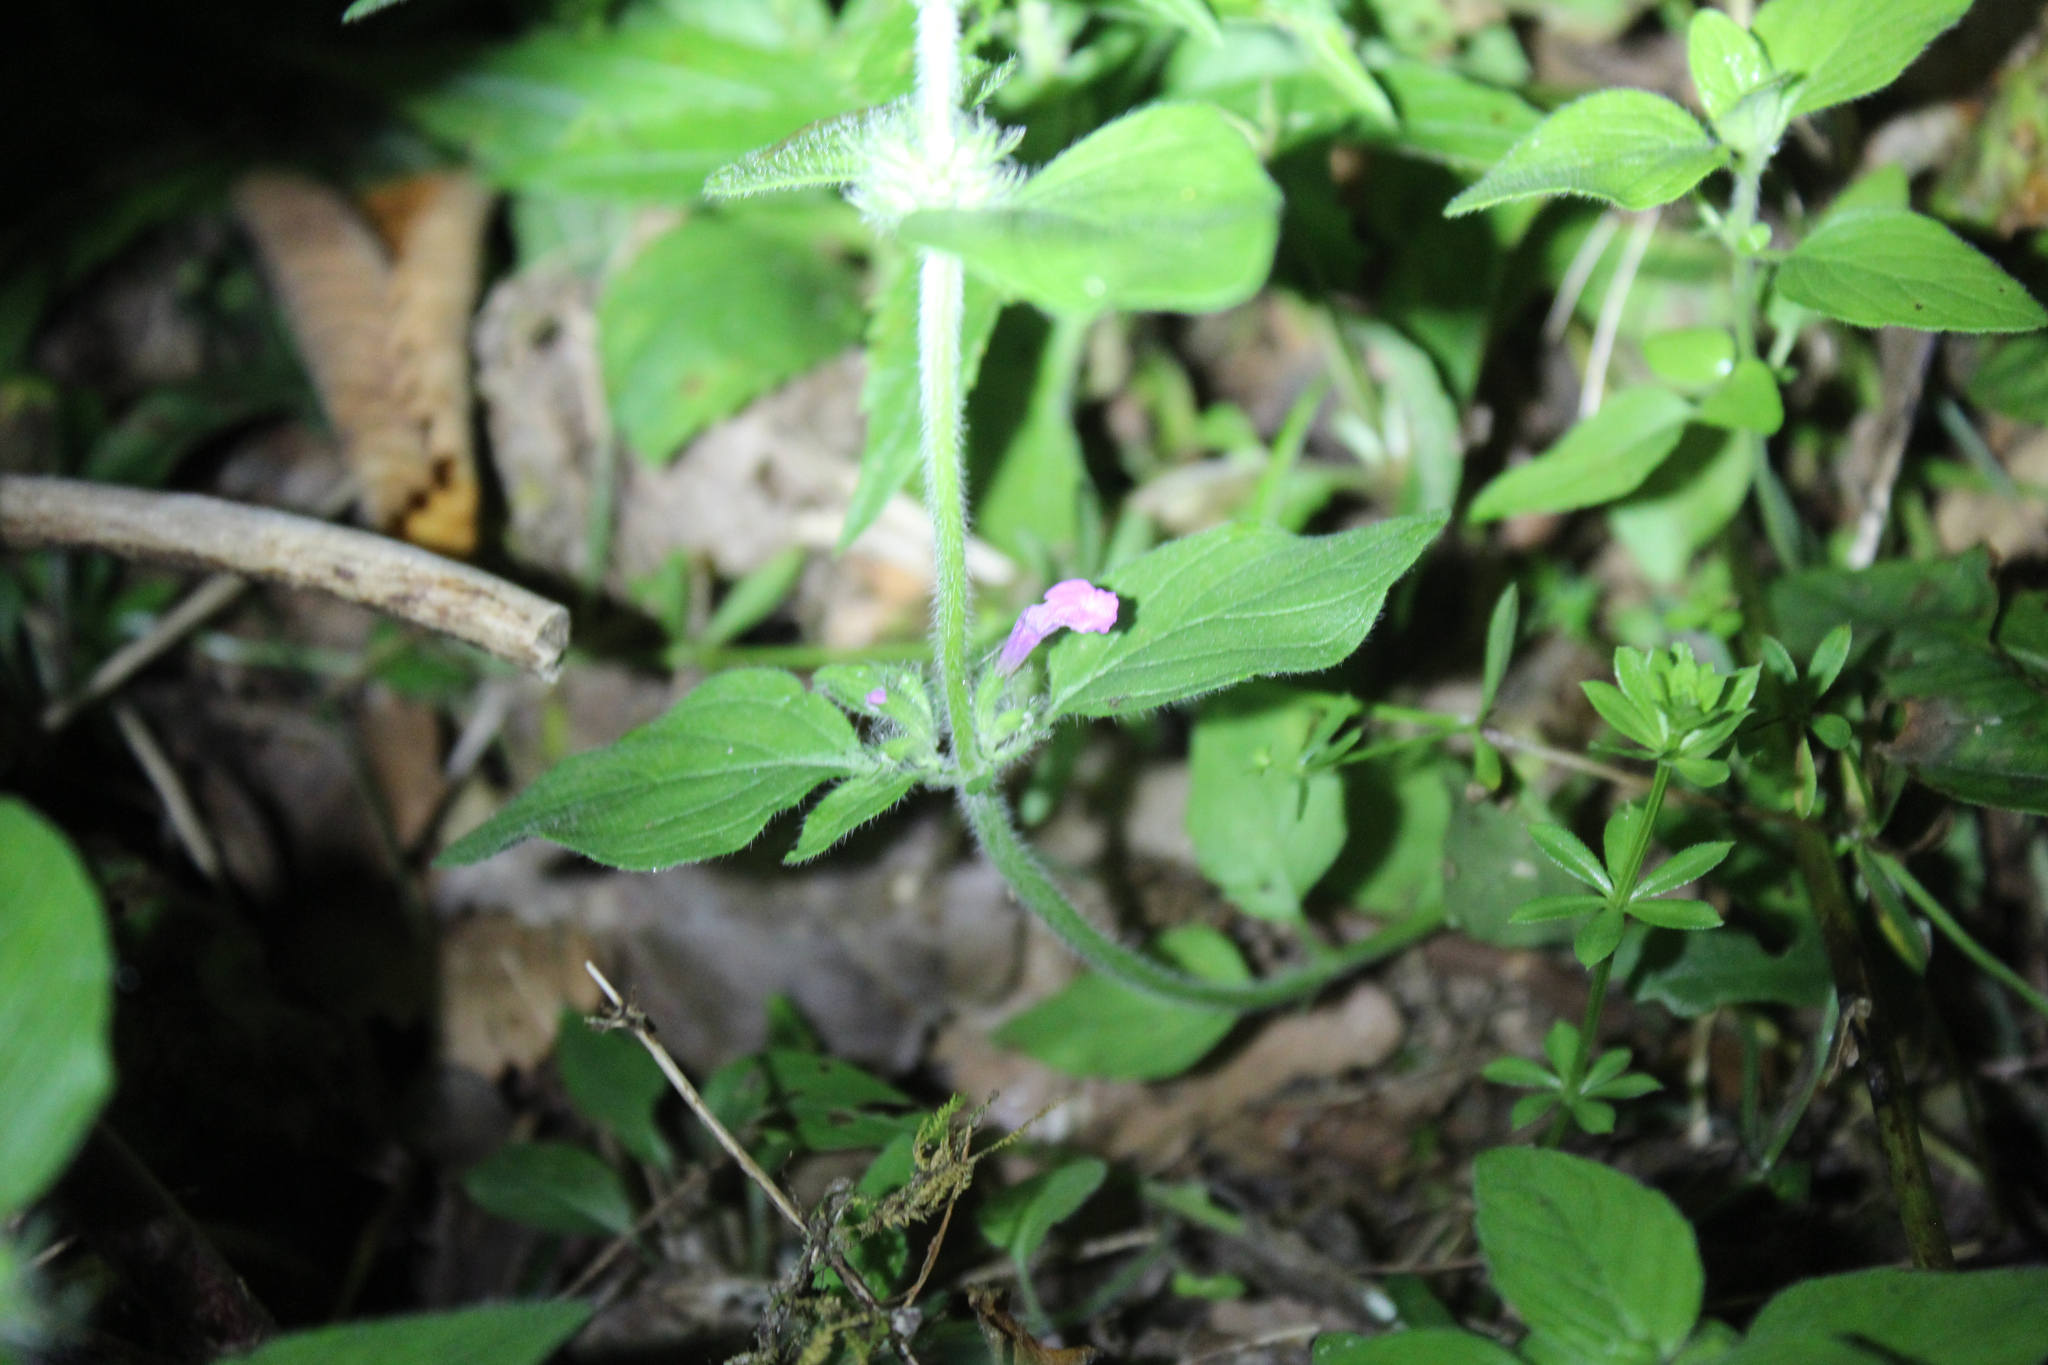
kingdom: Plantae
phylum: Tracheophyta
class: Magnoliopsida
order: Lamiales
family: Lamiaceae
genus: Clinopodium
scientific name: Clinopodium vulgare
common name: Wild basil
